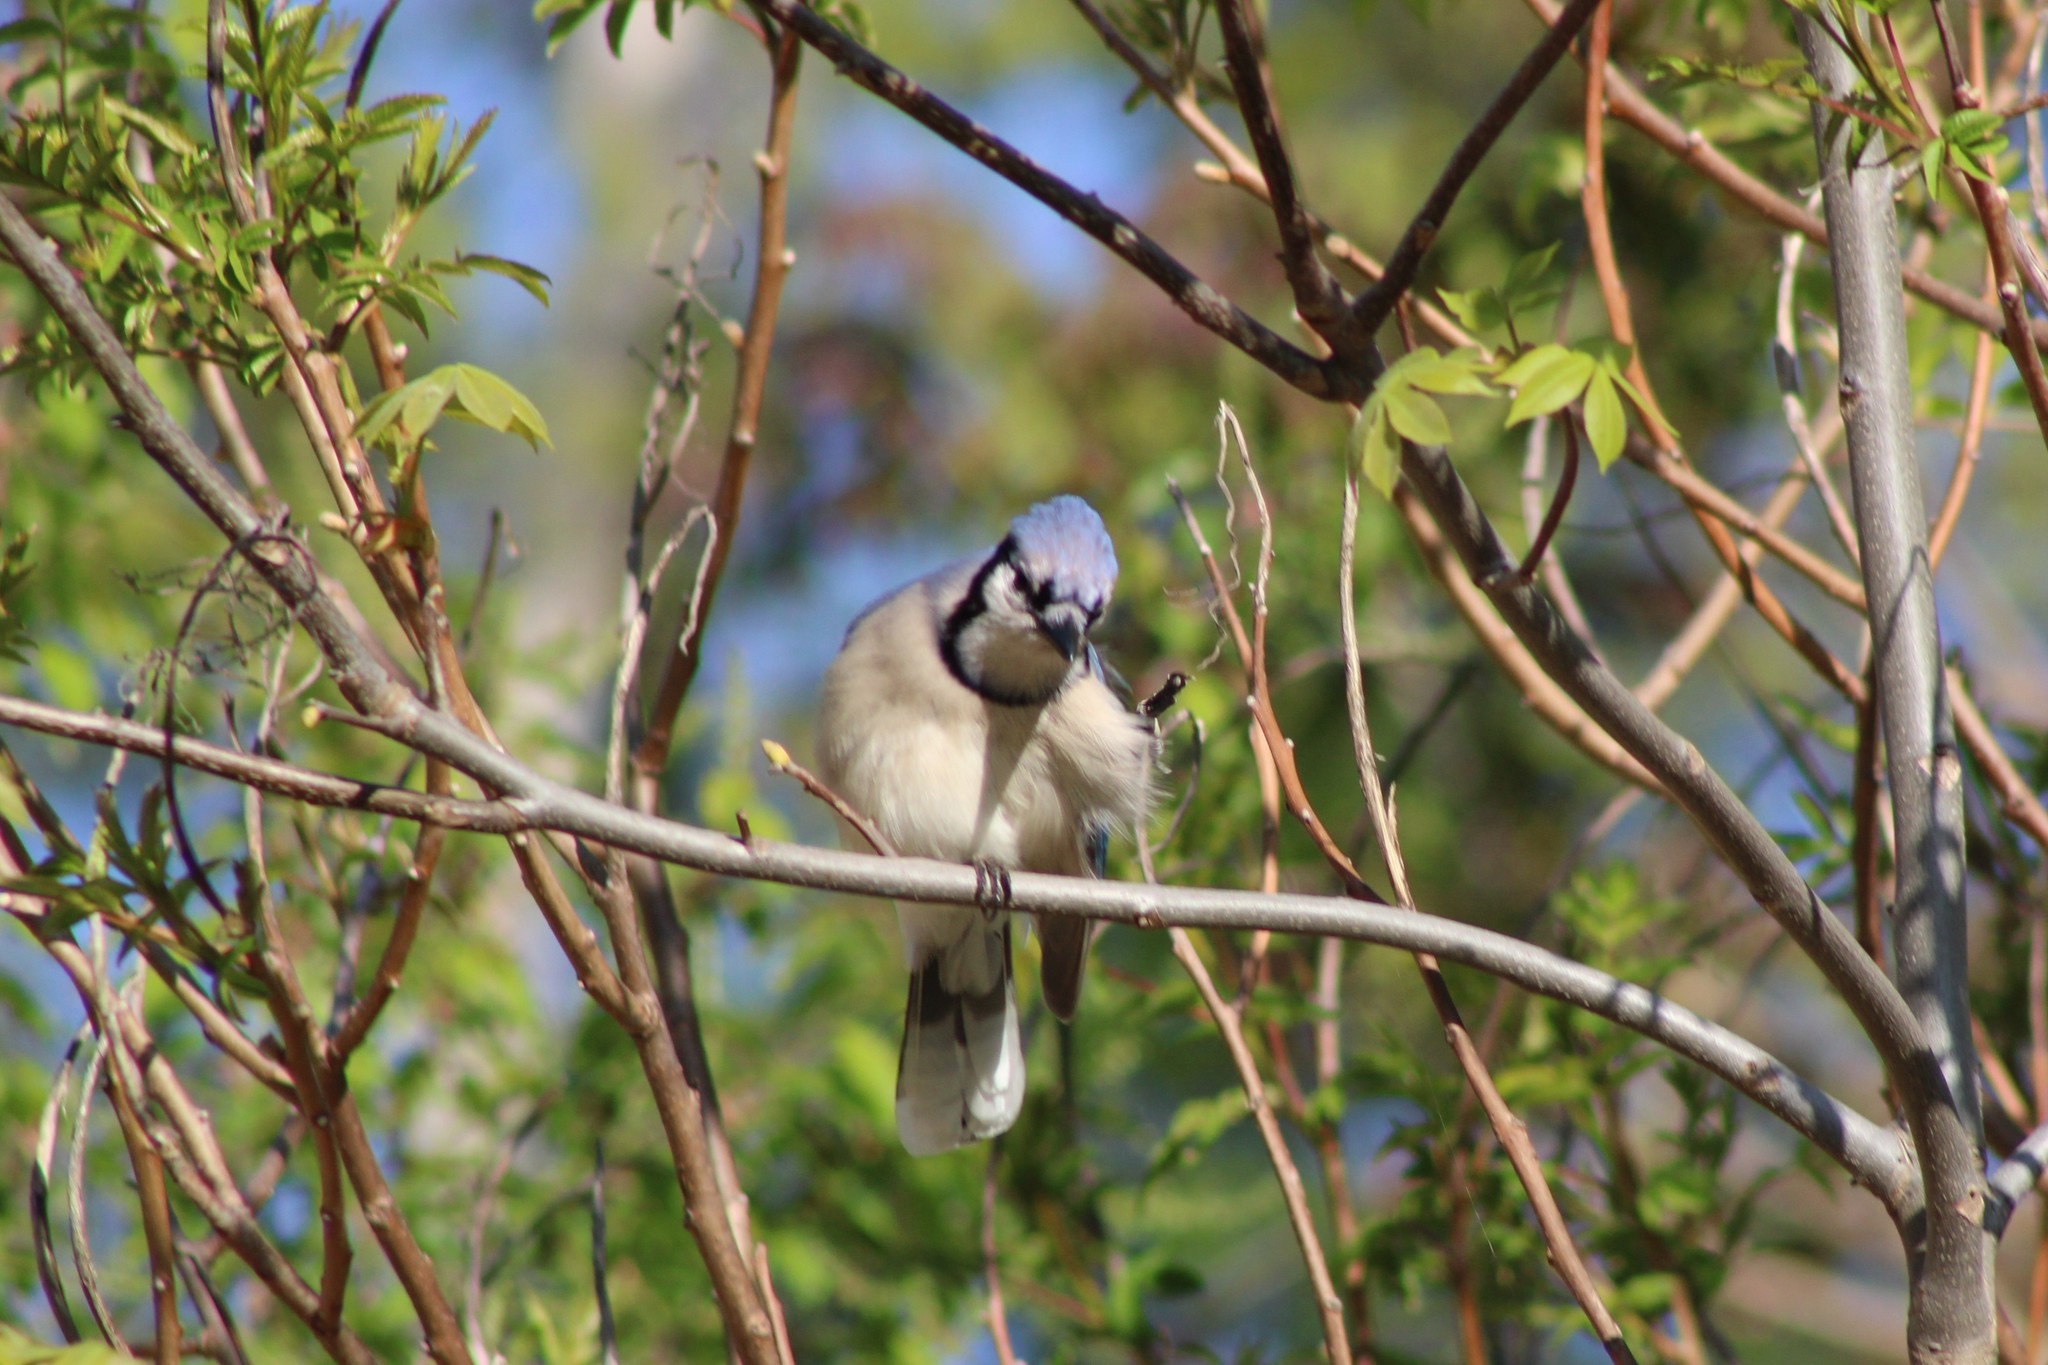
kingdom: Animalia
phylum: Chordata
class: Aves
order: Passeriformes
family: Corvidae
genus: Cyanocitta
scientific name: Cyanocitta cristata
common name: Blue jay
